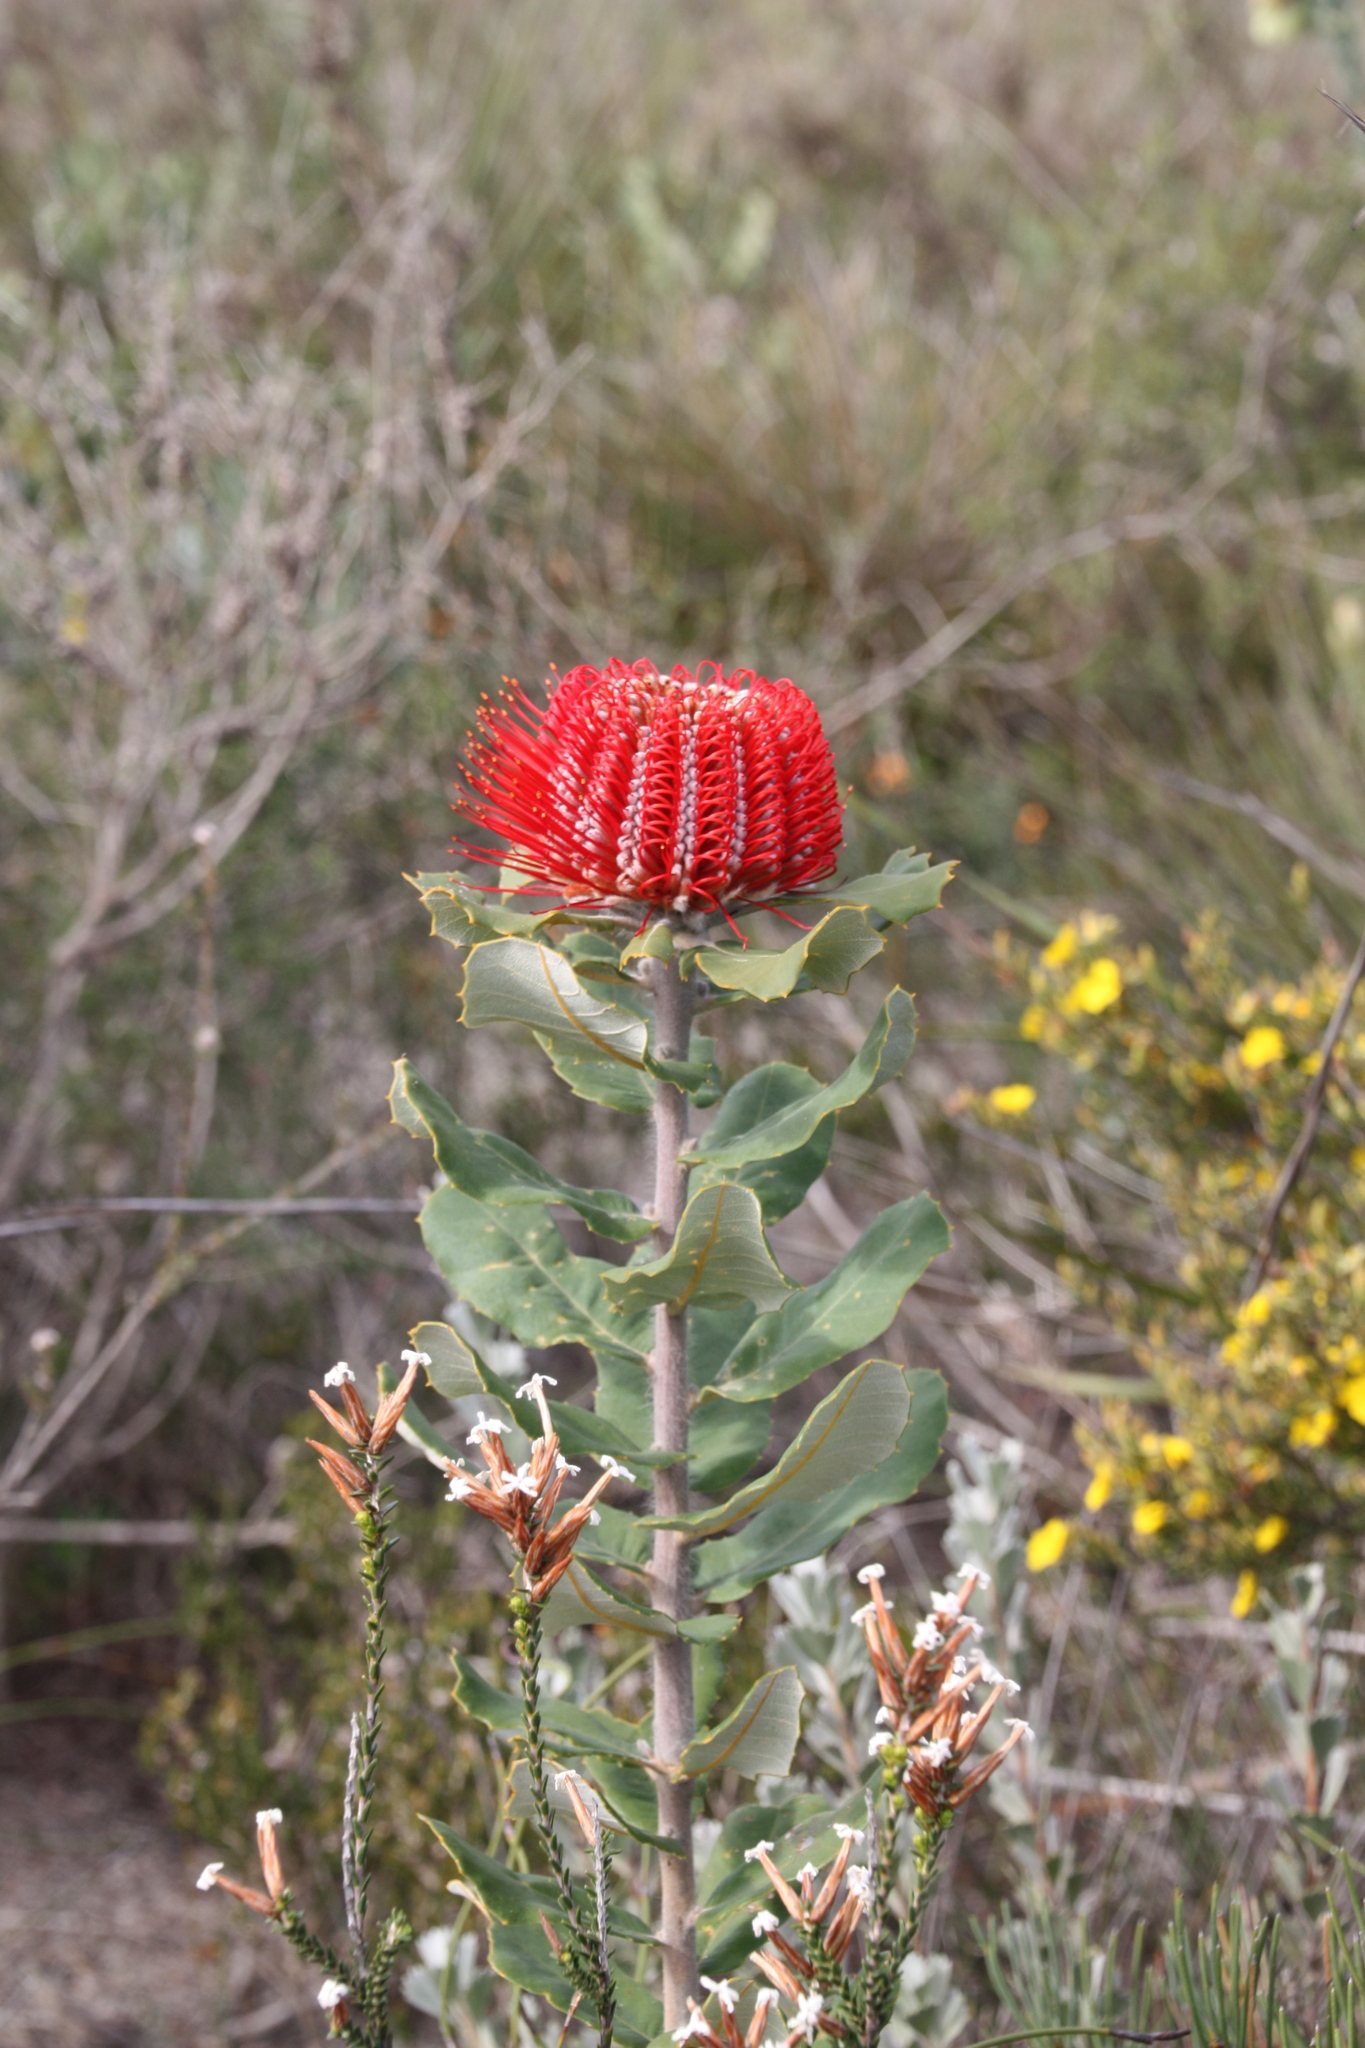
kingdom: Plantae
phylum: Tracheophyta
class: Magnoliopsida
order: Proteales
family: Proteaceae
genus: Banksia
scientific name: Banksia coccinea
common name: Scarlet banksia
